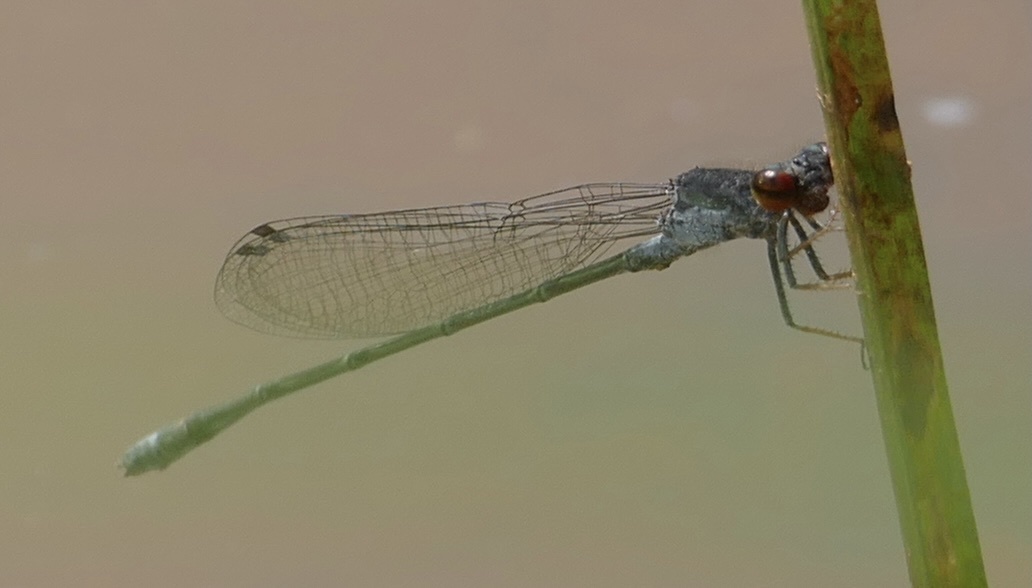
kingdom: Animalia
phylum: Arthropoda
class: Insecta
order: Odonata
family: Coenagrionidae
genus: Pseudagrion
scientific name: Pseudagrion hamoni
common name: Swarthy sprite
